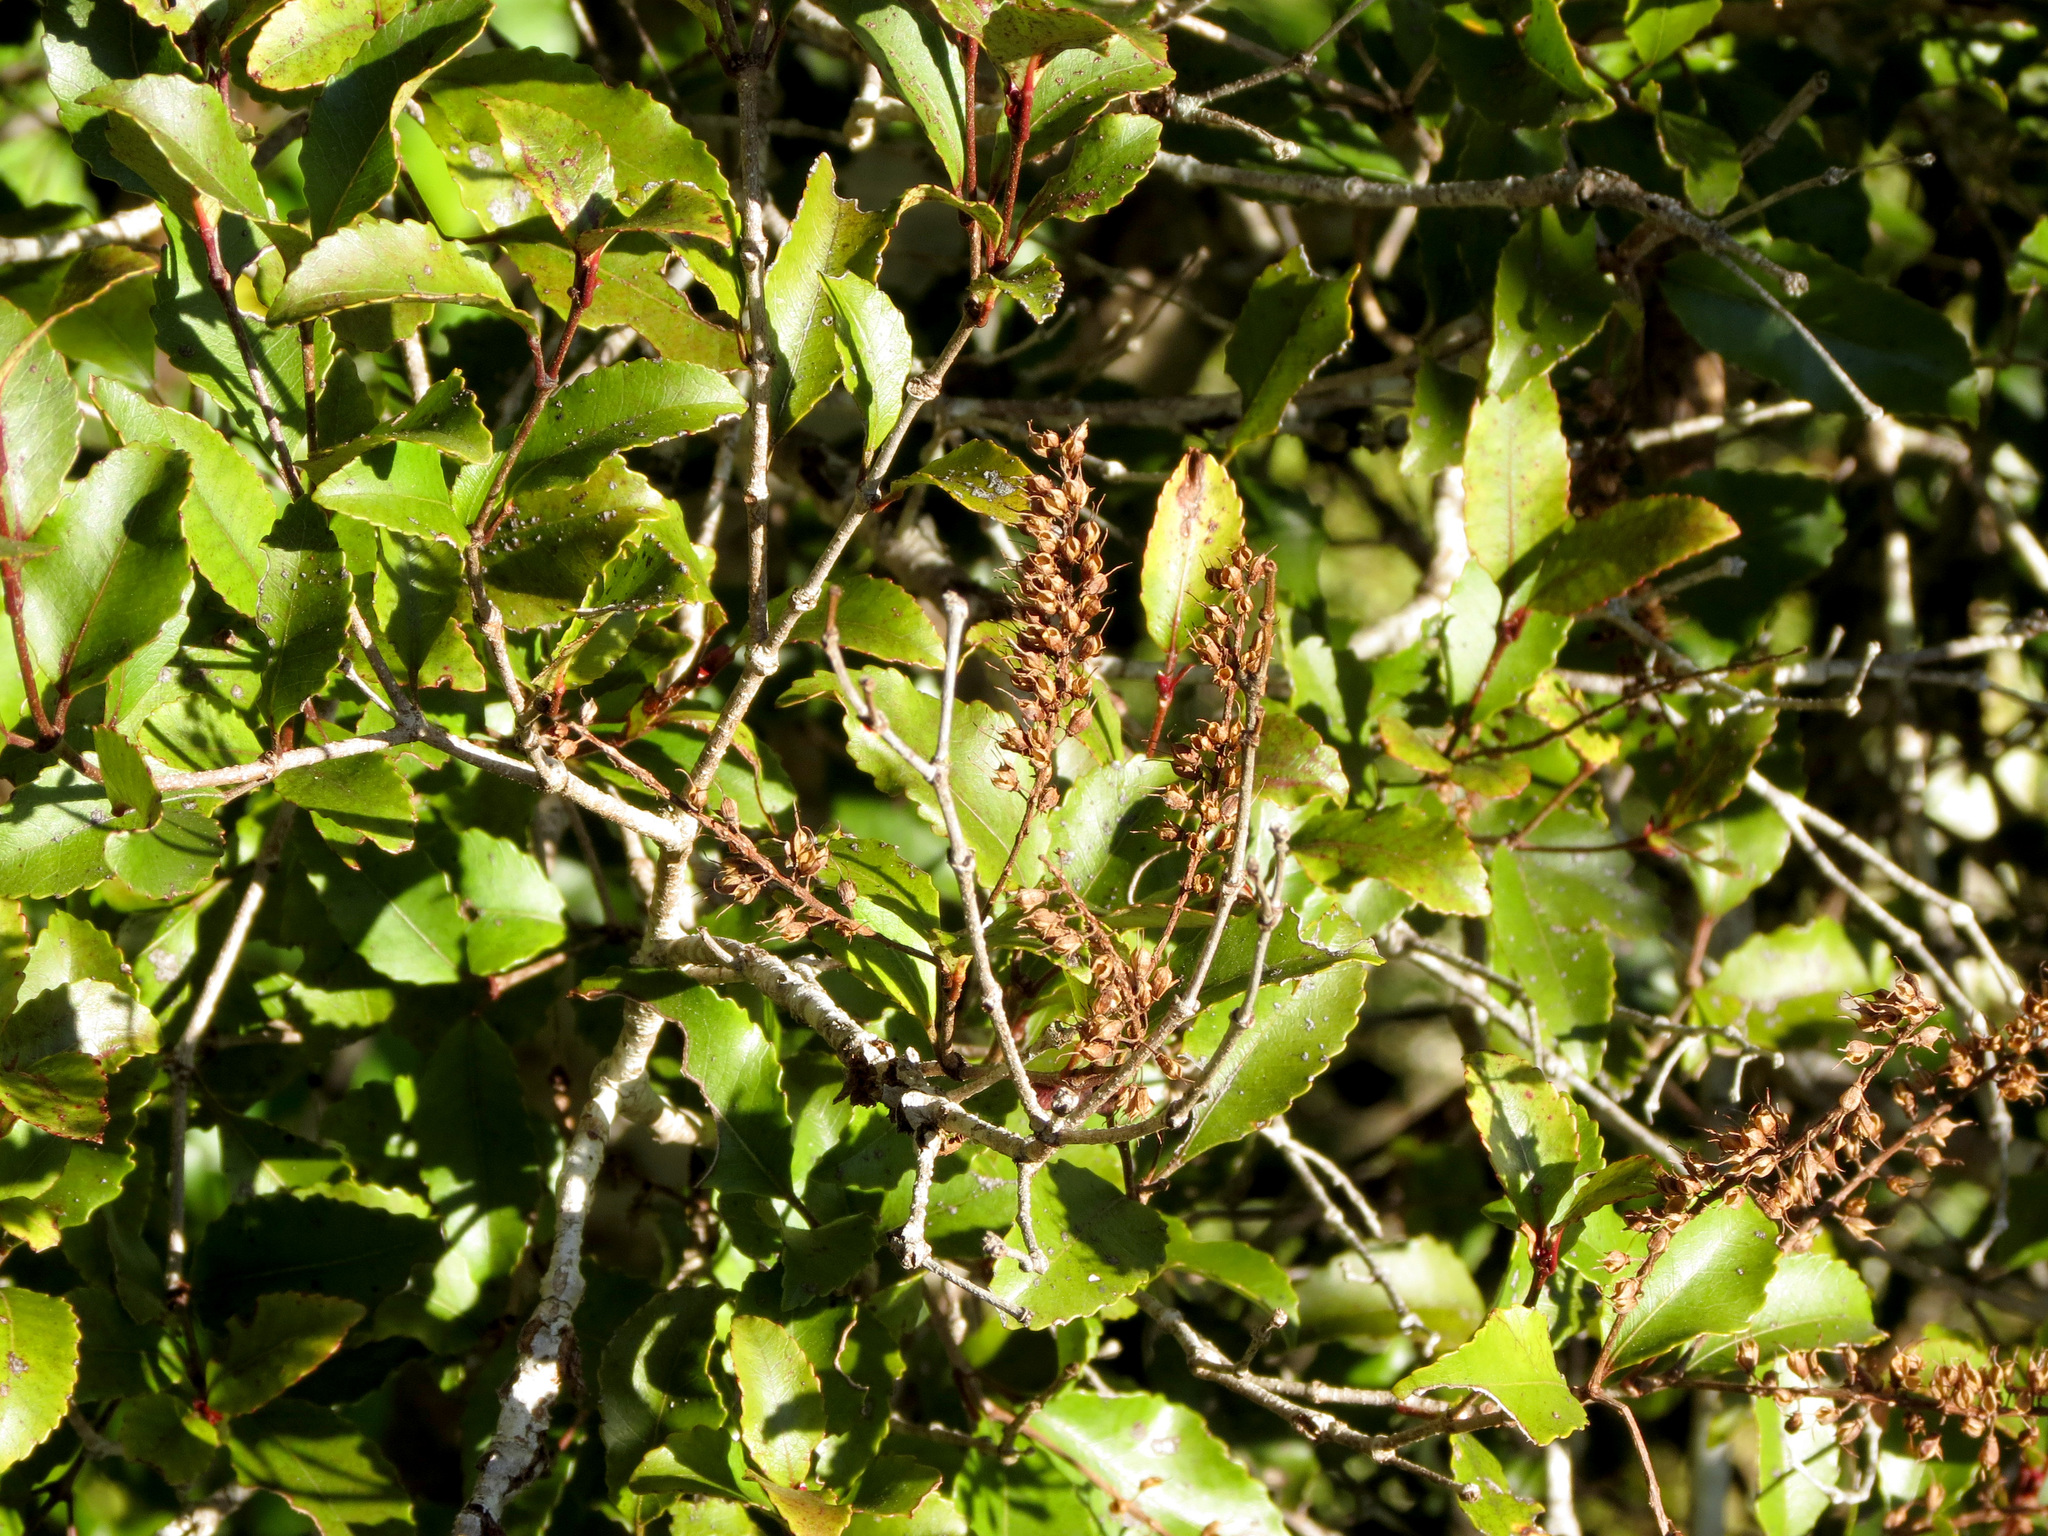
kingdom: Plantae
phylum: Tracheophyta
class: Magnoliopsida
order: Oxalidales
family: Cunoniaceae
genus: Pterophylla
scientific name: Pterophylla racemosa
